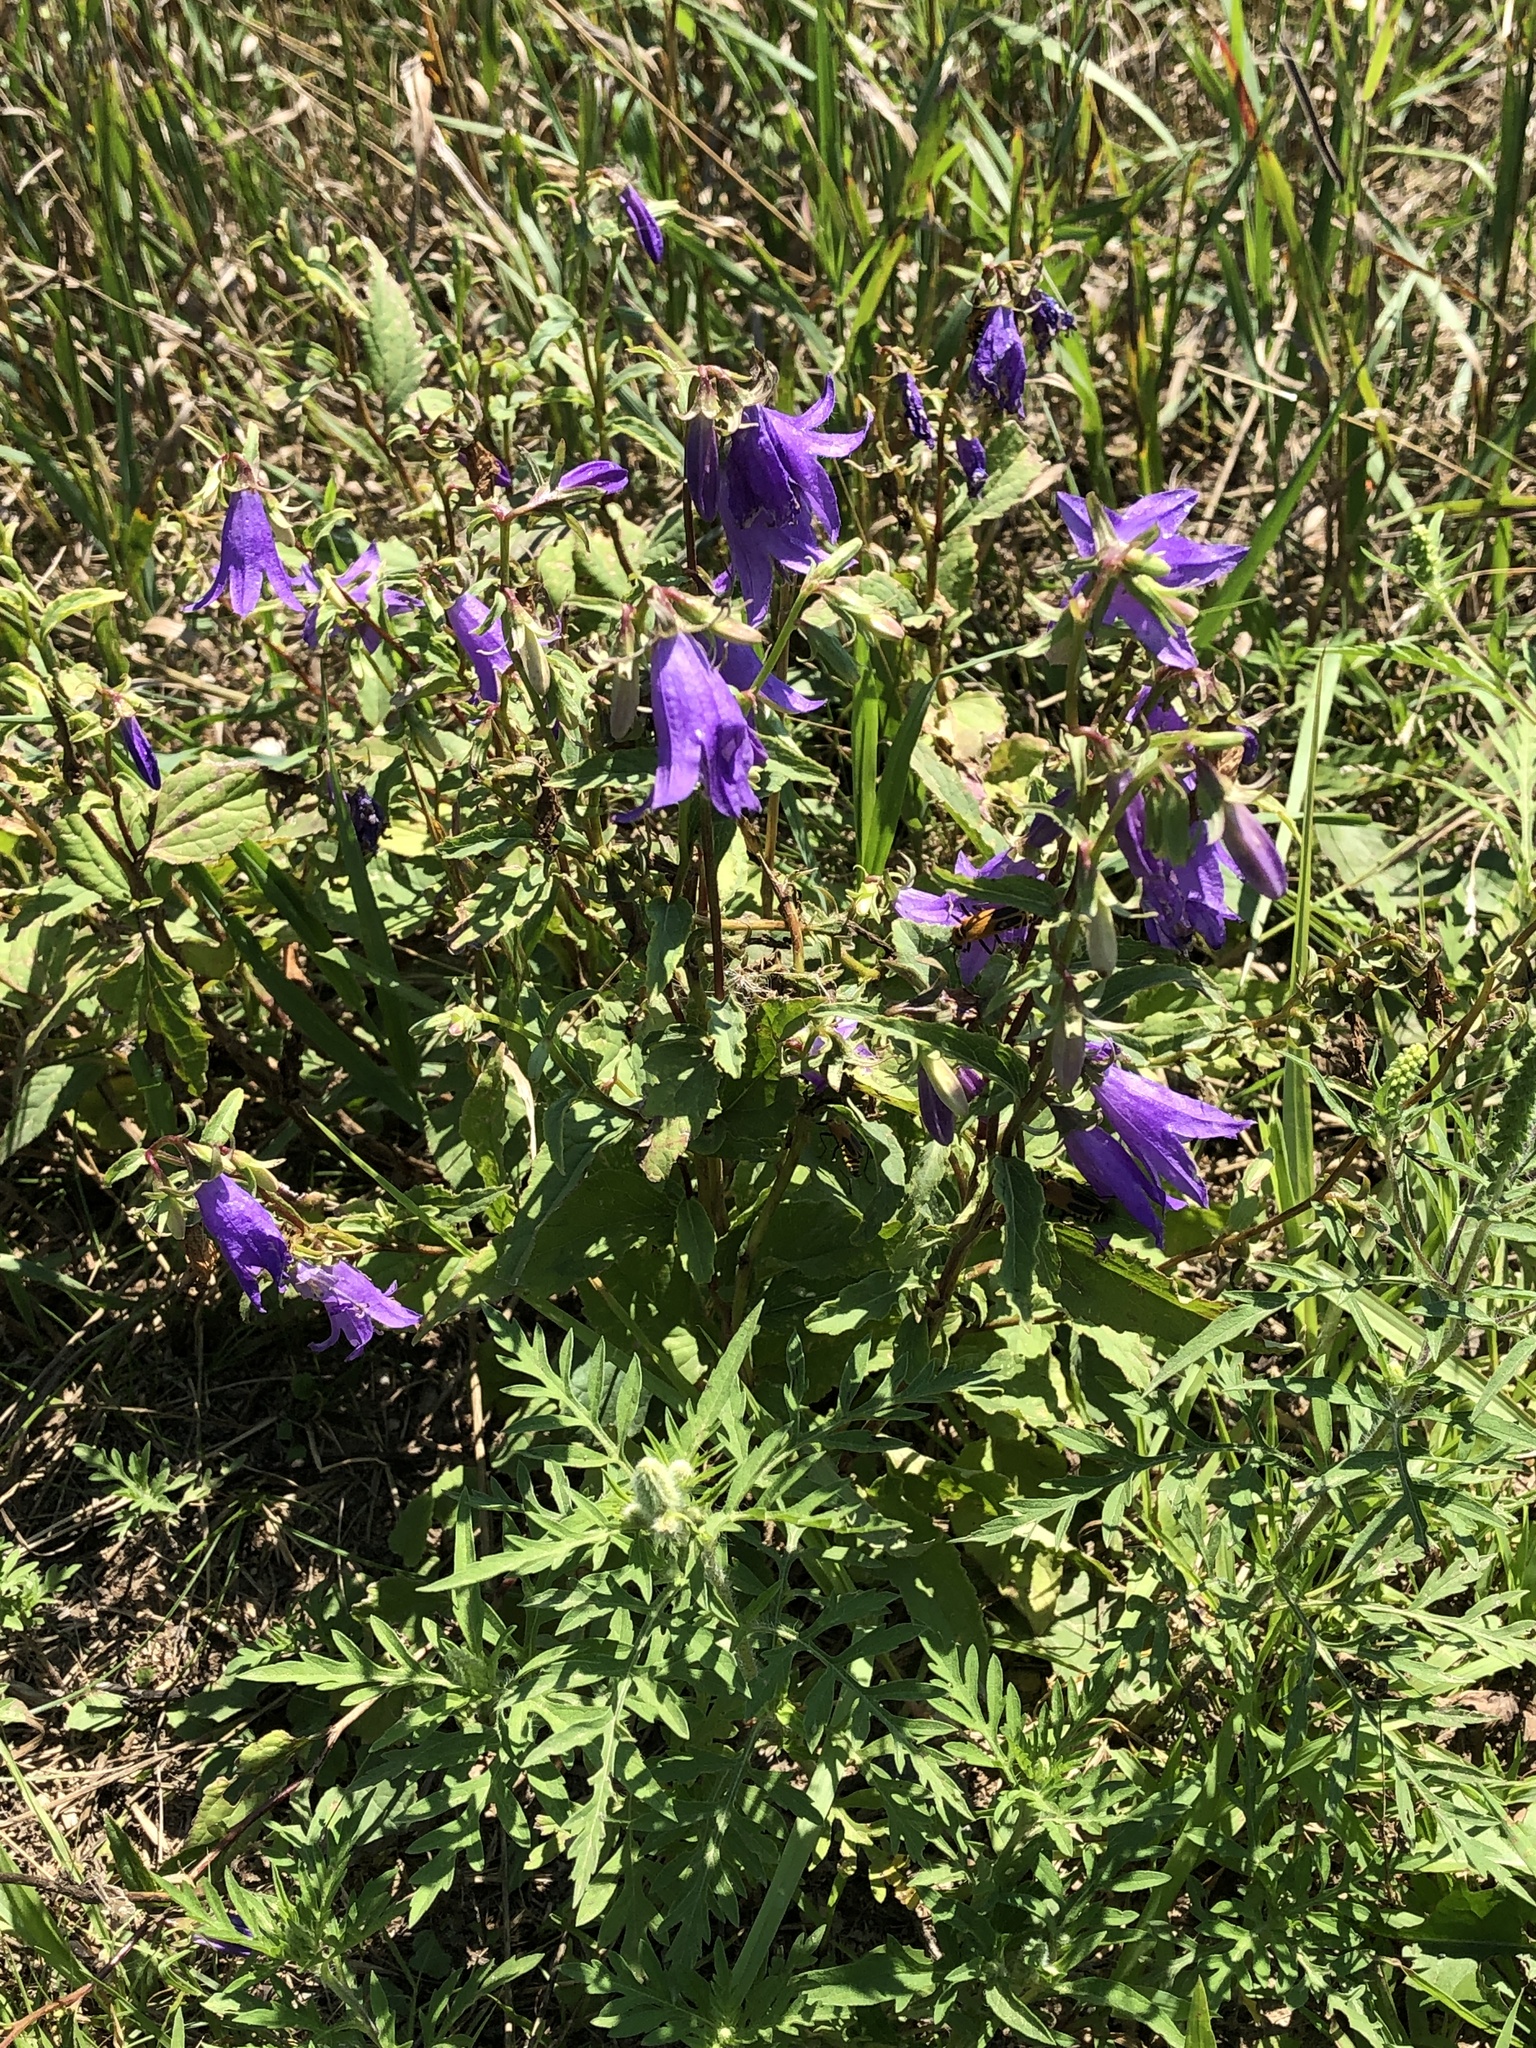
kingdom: Plantae
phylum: Tracheophyta
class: Magnoliopsida
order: Asterales
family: Campanulaceae
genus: Campanula
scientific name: Campanula rapunculoides
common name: Creeping bellflower
